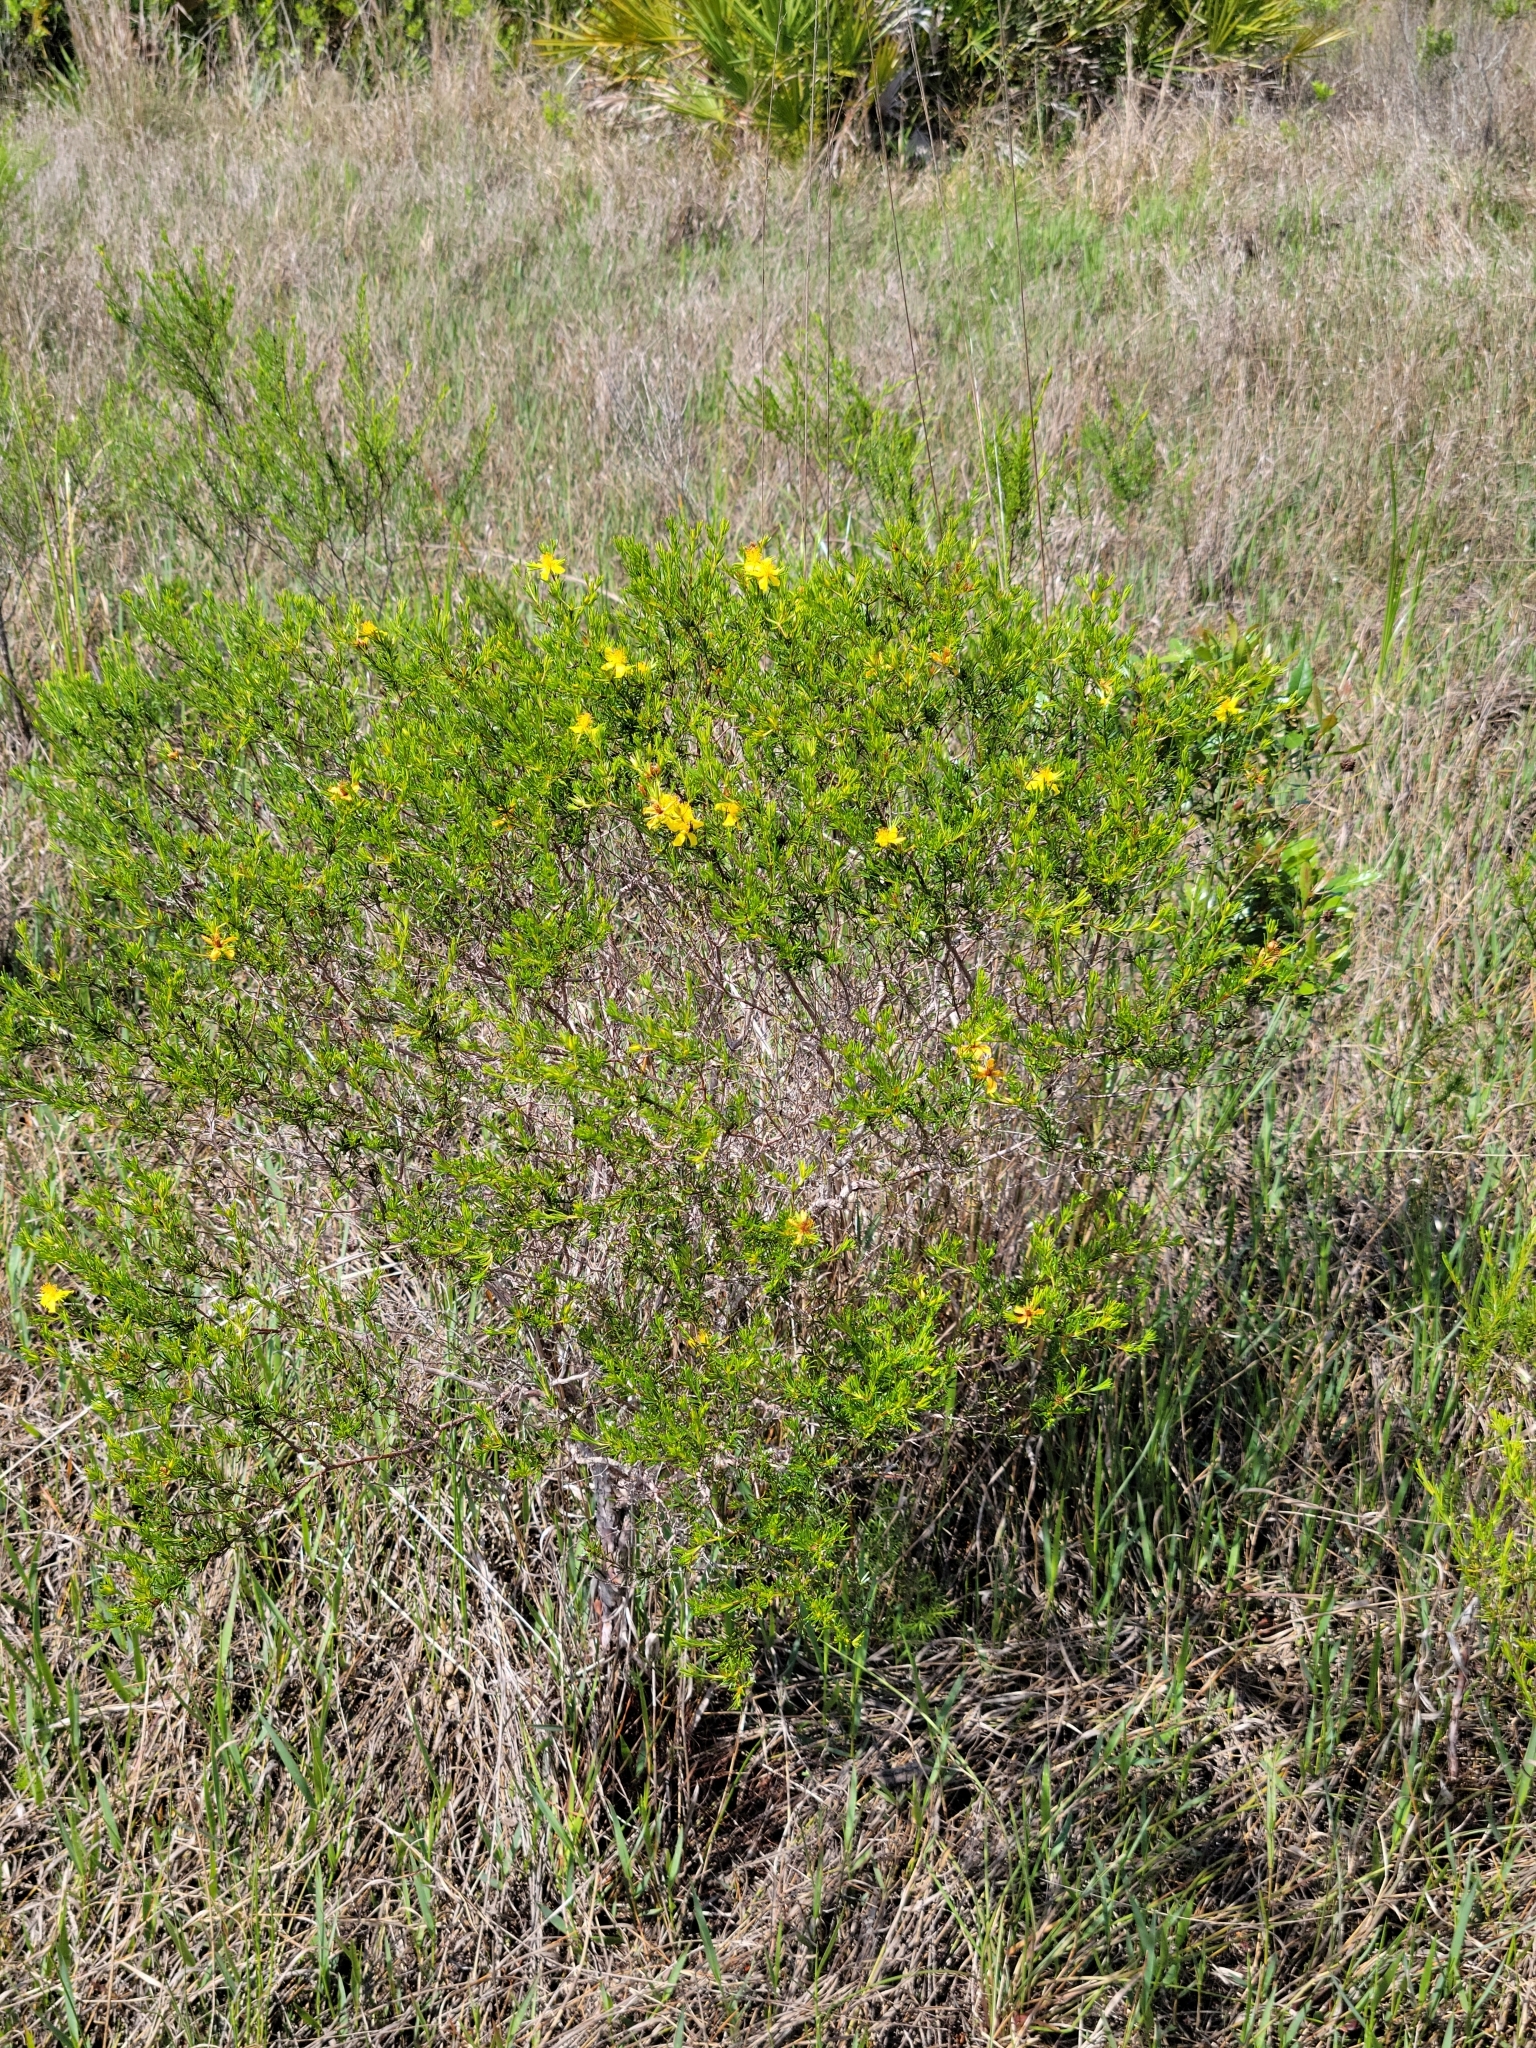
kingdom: Plantae
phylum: Tracheophyta
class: Magnoliopsida
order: Malpighiales
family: Hypericaceae
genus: Hypericum
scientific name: Hypericum fasciculatum
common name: Peelbark st. john's wort
